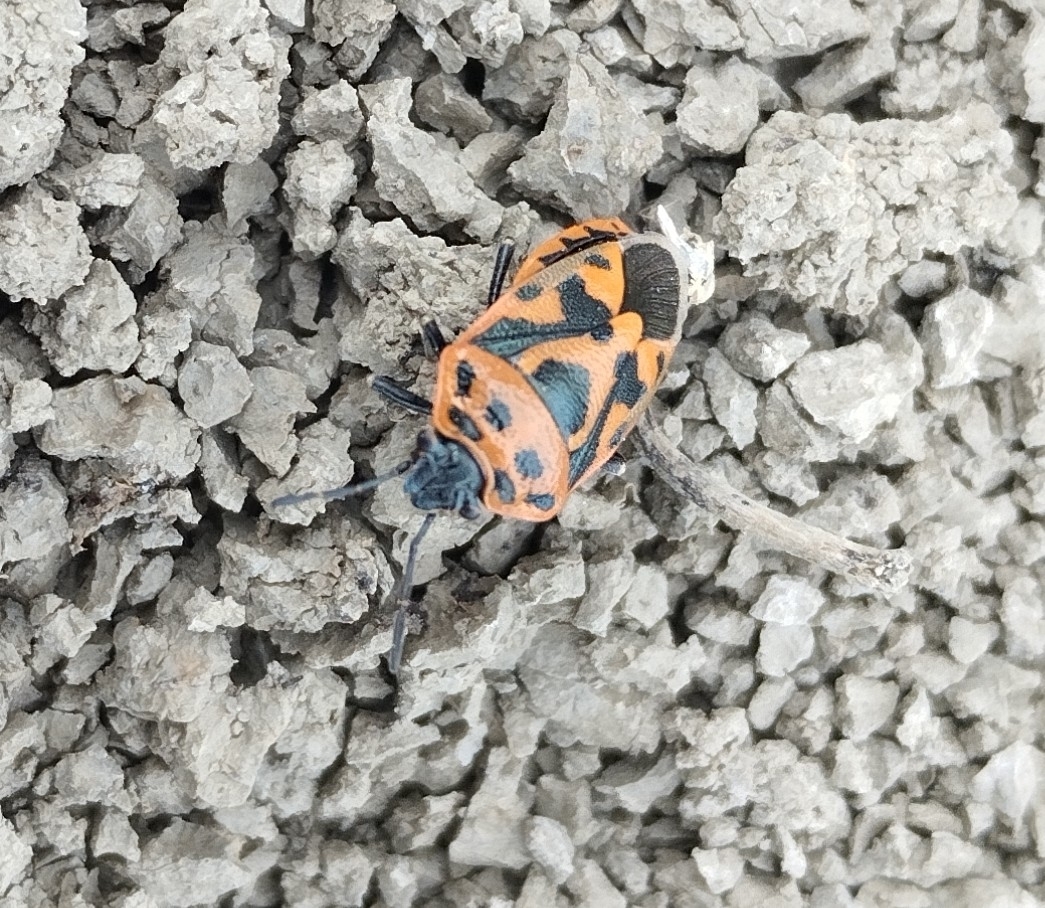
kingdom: Animalia
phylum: Arthropoda
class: Insecta
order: Hemiptera
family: Pentatomidae
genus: Eurydema
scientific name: Eurydema ornata
